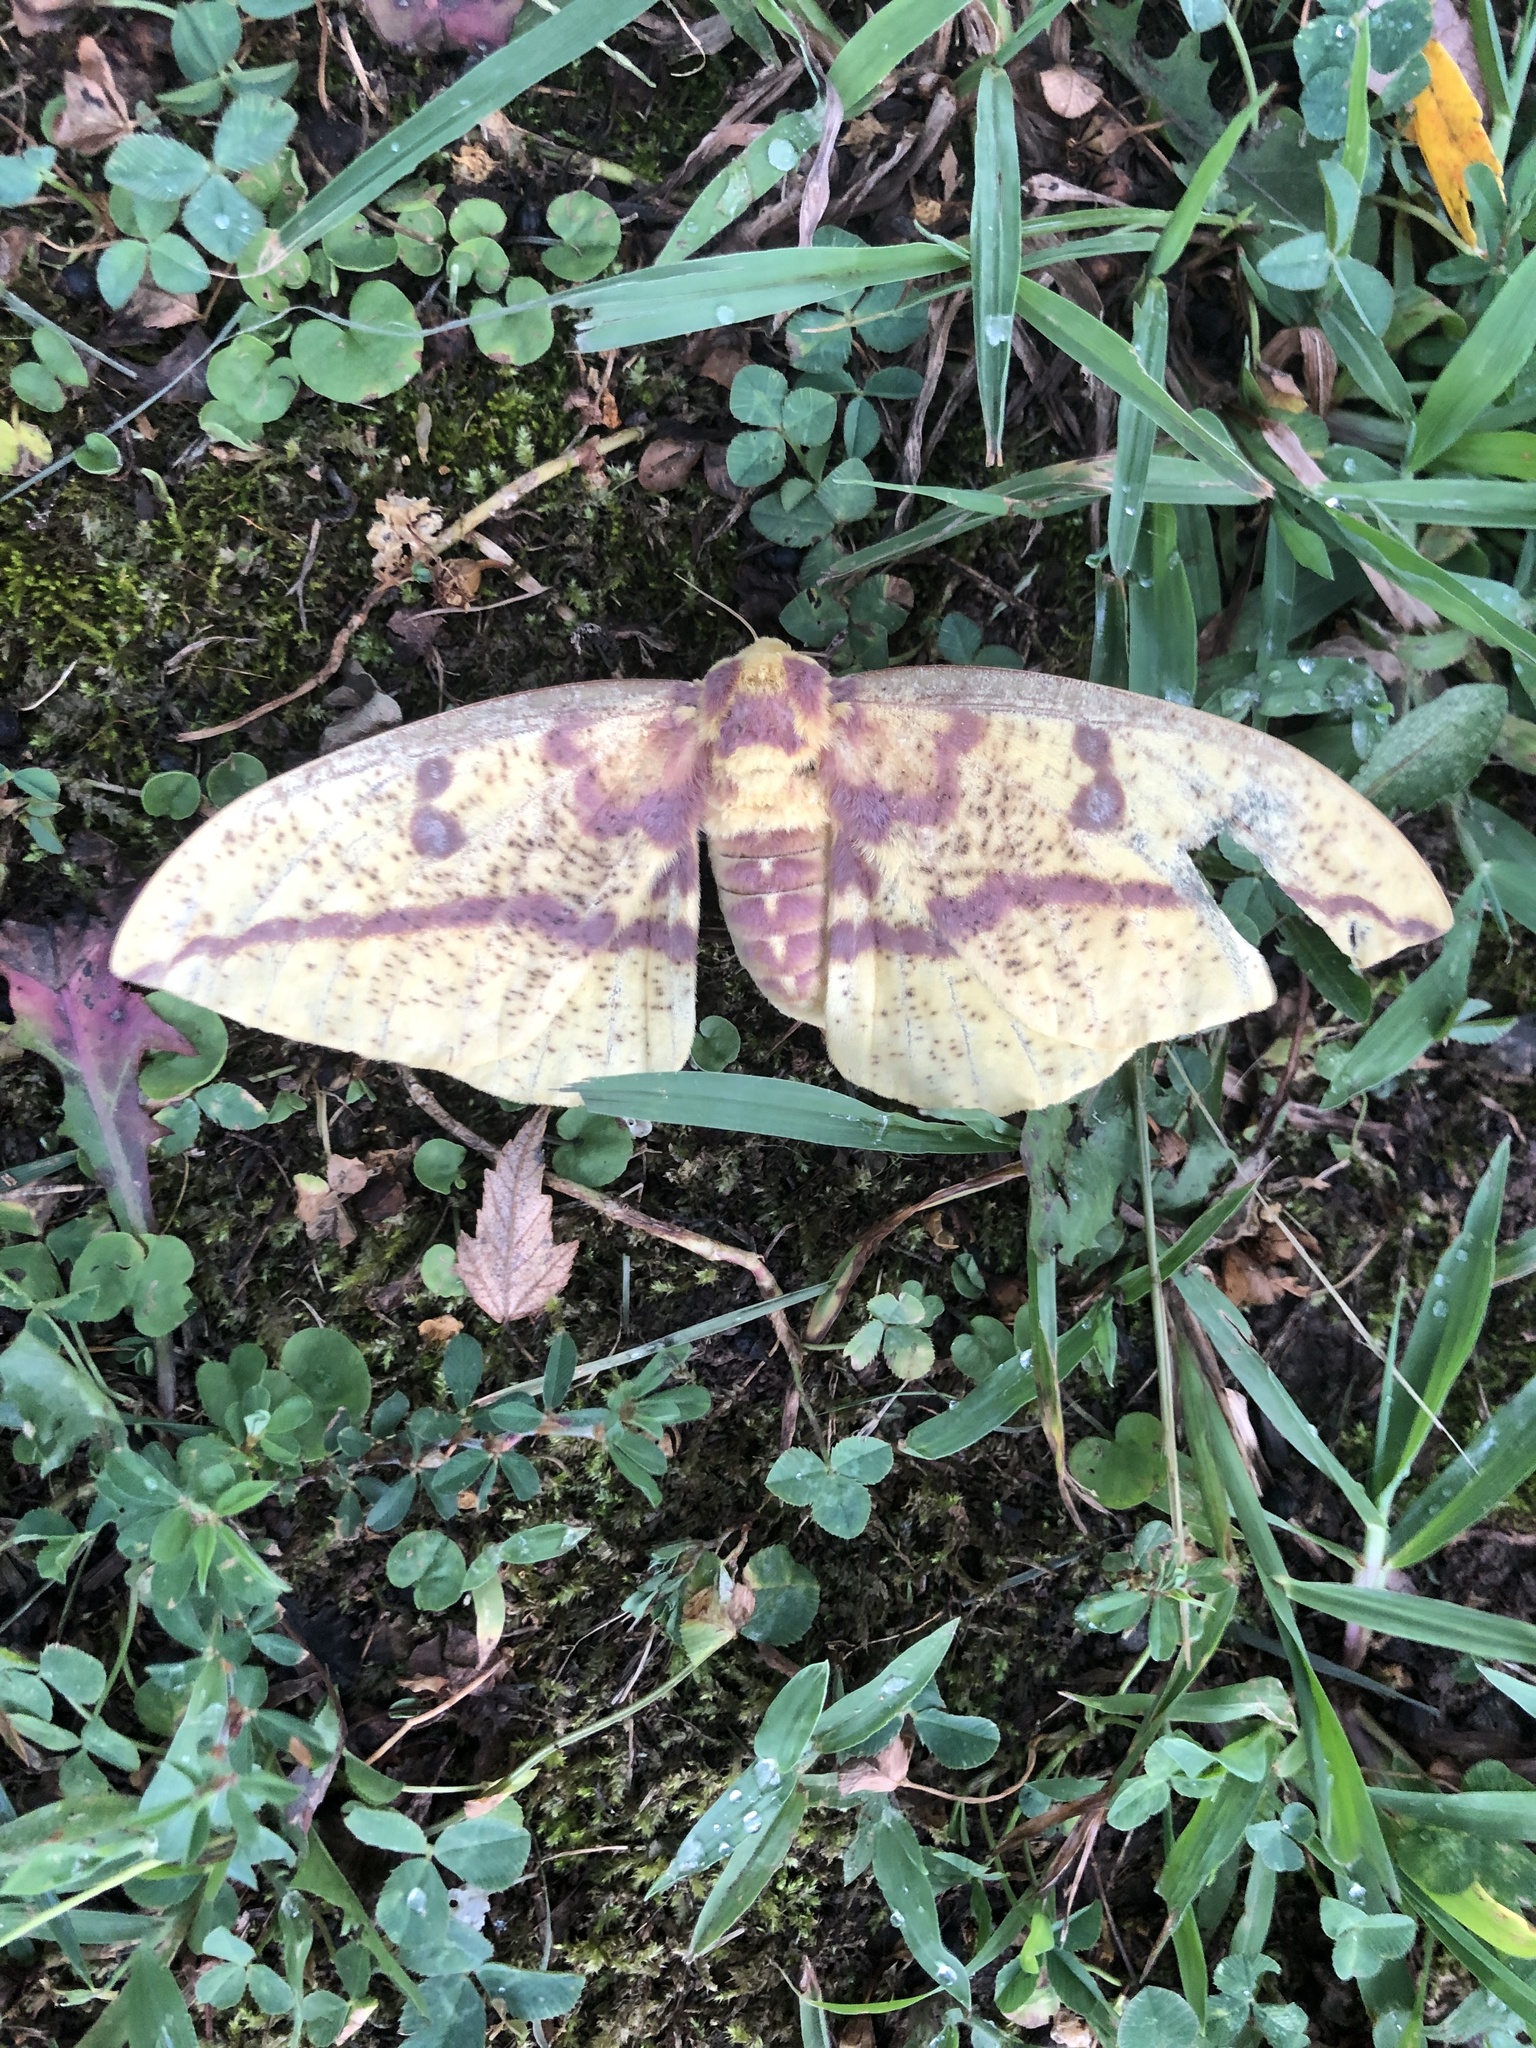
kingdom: Animalia
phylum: Arthropoda
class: Insecta
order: Lepidoptera
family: Saturniidae
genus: Eacles
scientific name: Eacles imperialis
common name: Imperial moth
